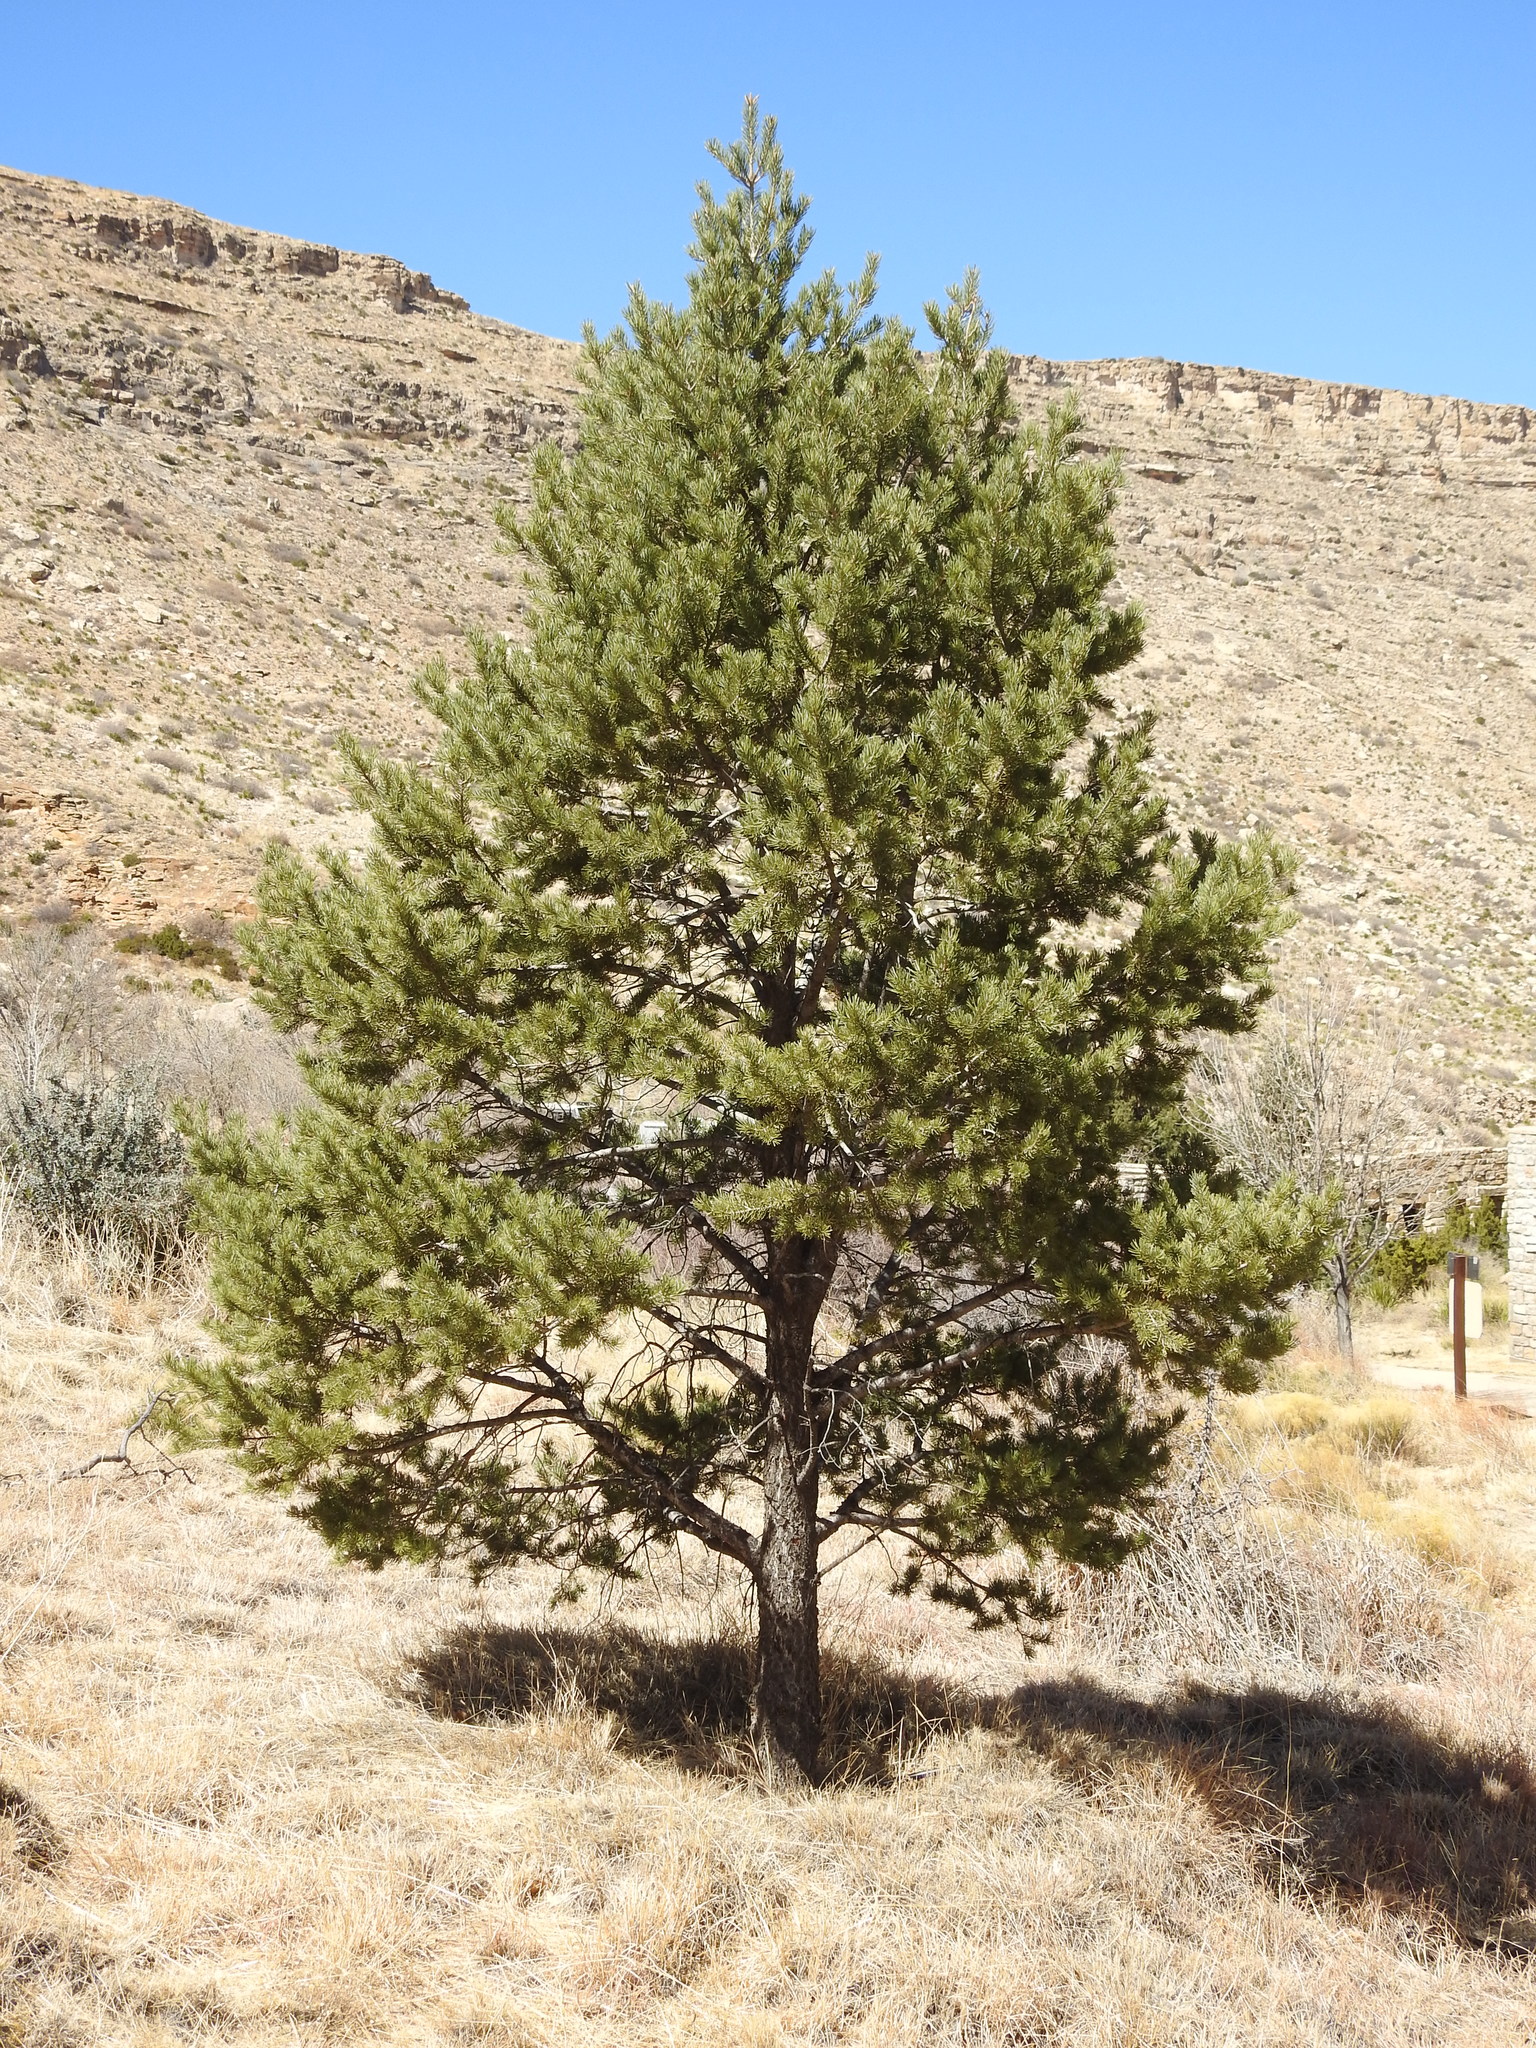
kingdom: Plantae
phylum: Tracheophyta
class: Pinopsida
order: Pinales
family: Pinaceae
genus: Pinus
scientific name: Pinus edulis
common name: Colorado pinyon
